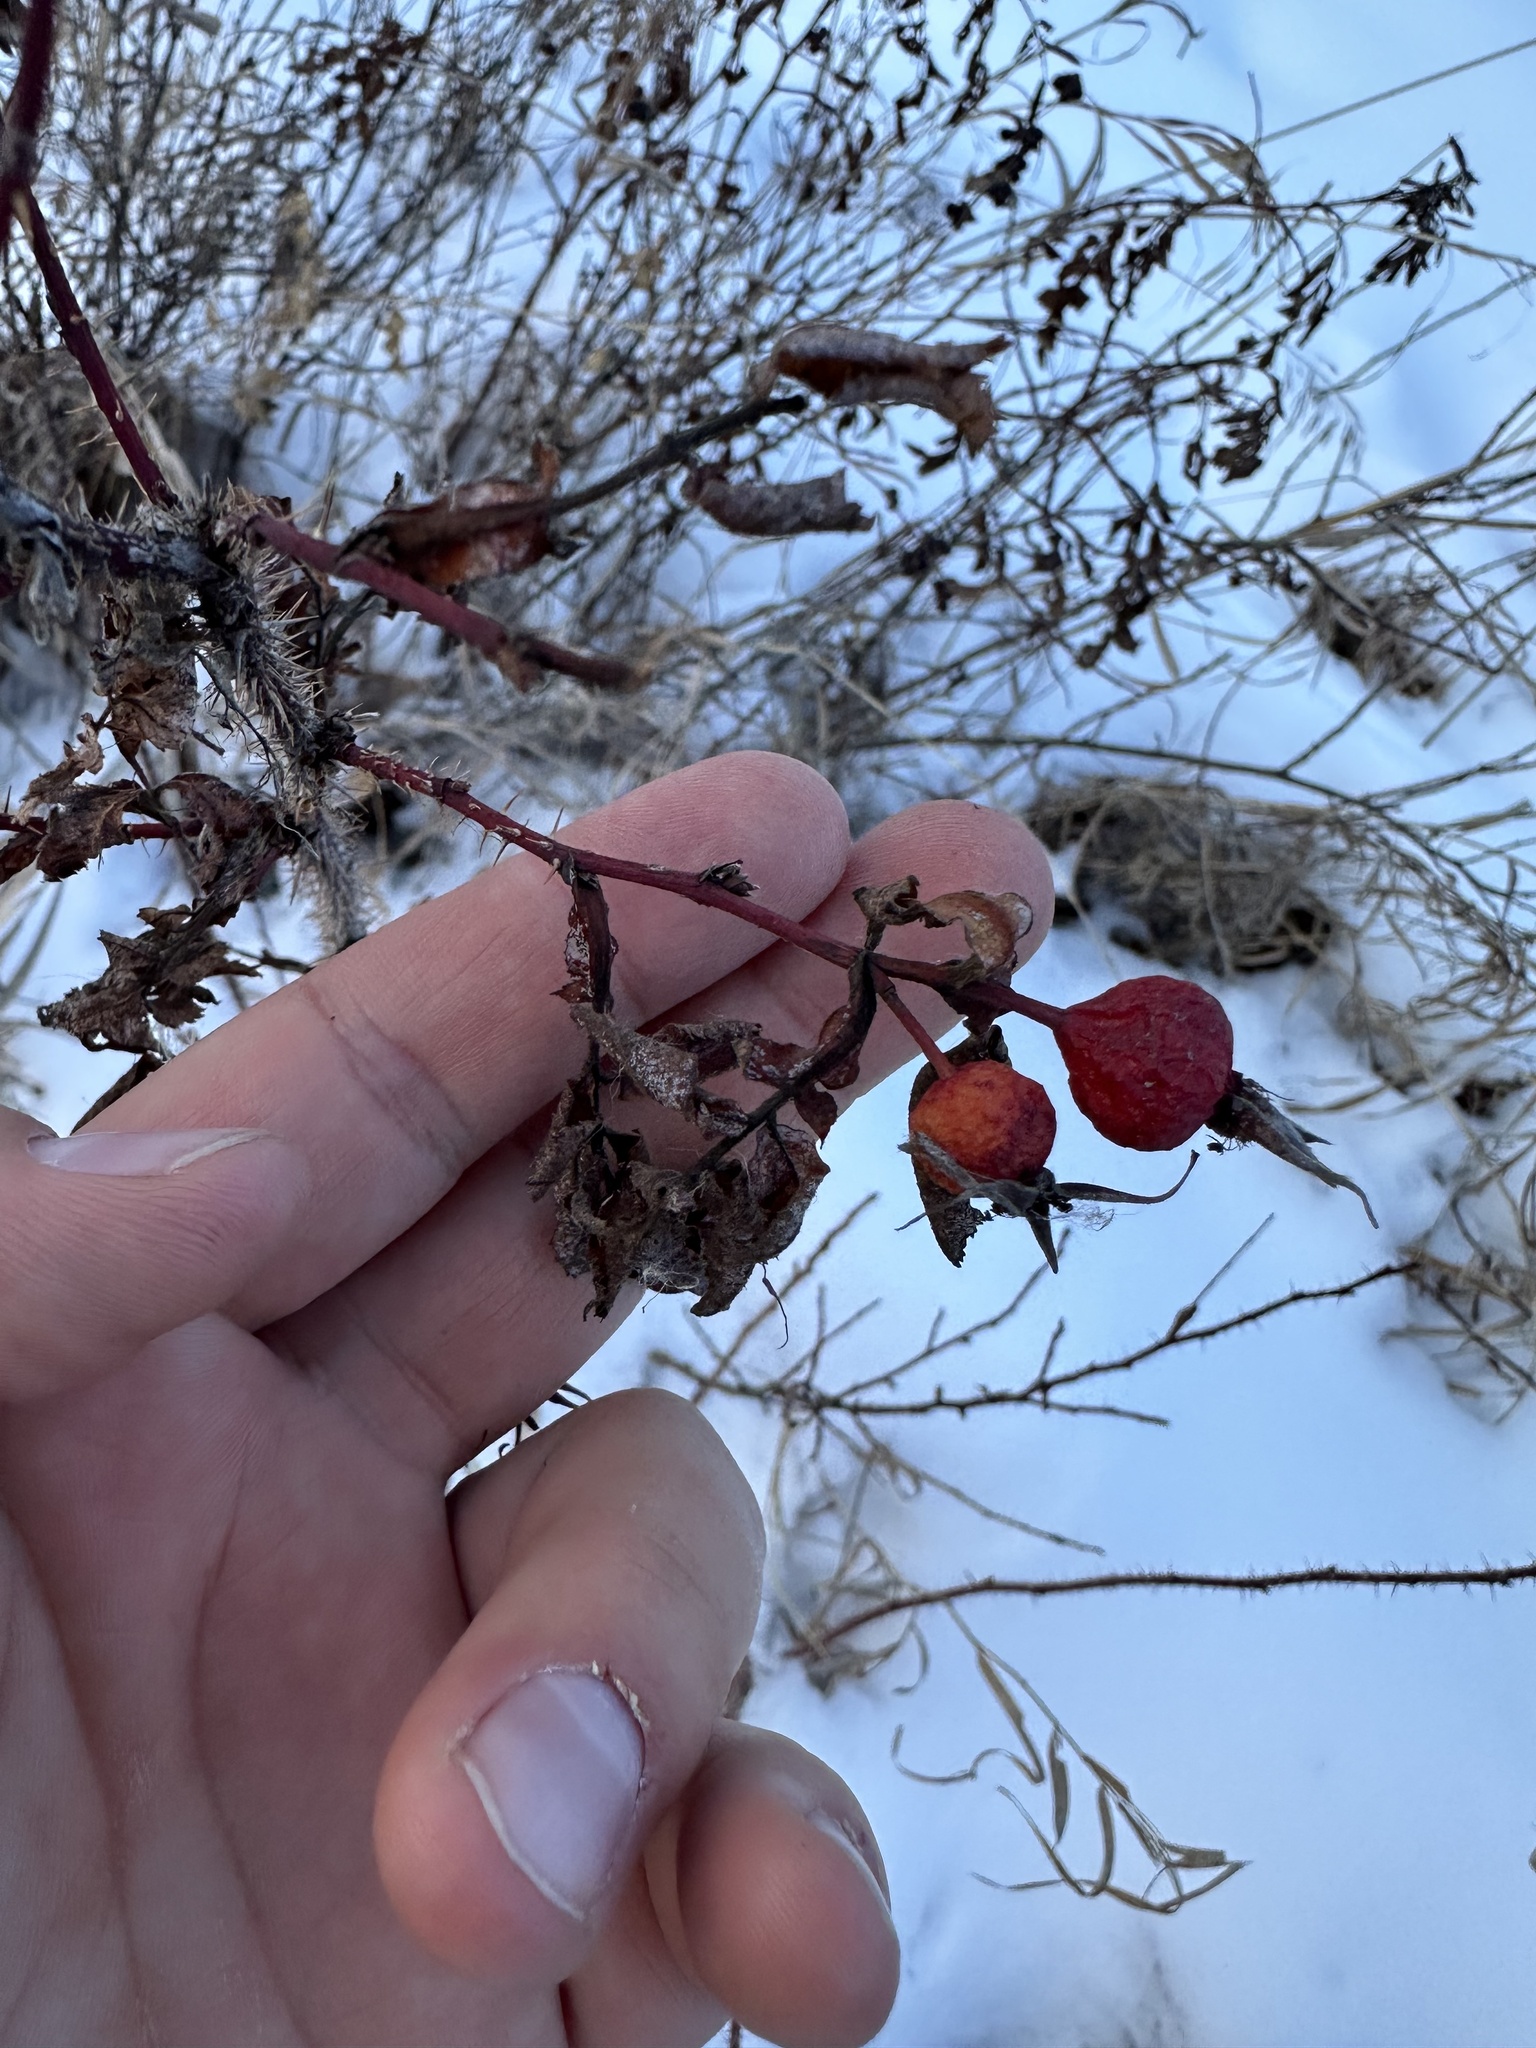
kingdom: Plantae
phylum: Tracheophyta
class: Magnoliopsida
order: Rosales
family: Rosaceae
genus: Rosa
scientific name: Rosa woodsii
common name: Woods's rose
